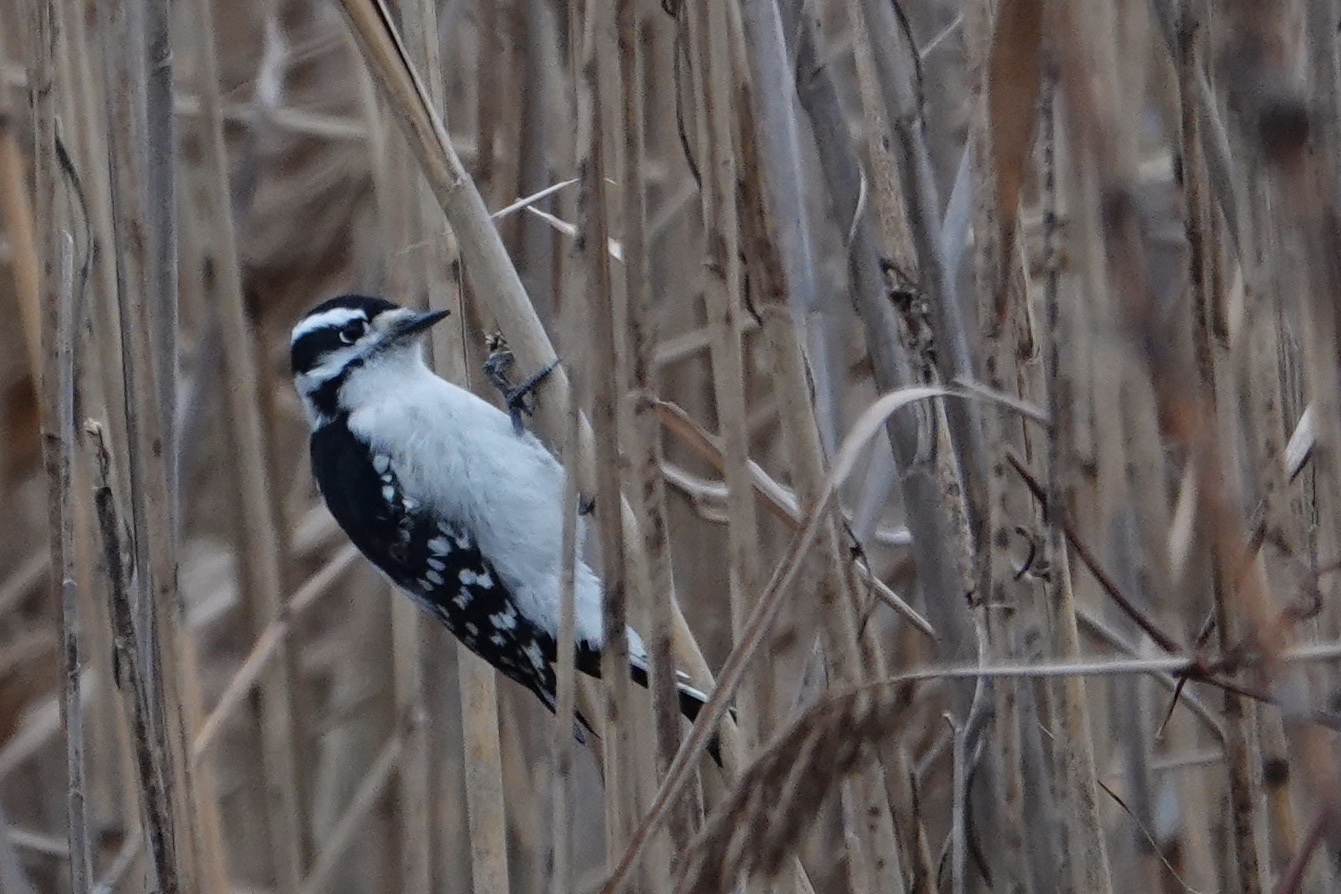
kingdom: Animalia
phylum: Chordata
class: Aves
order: Piciformes
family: Picidae
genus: Dryobates
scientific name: Dryobates pubescens
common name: Downy woodpecker
